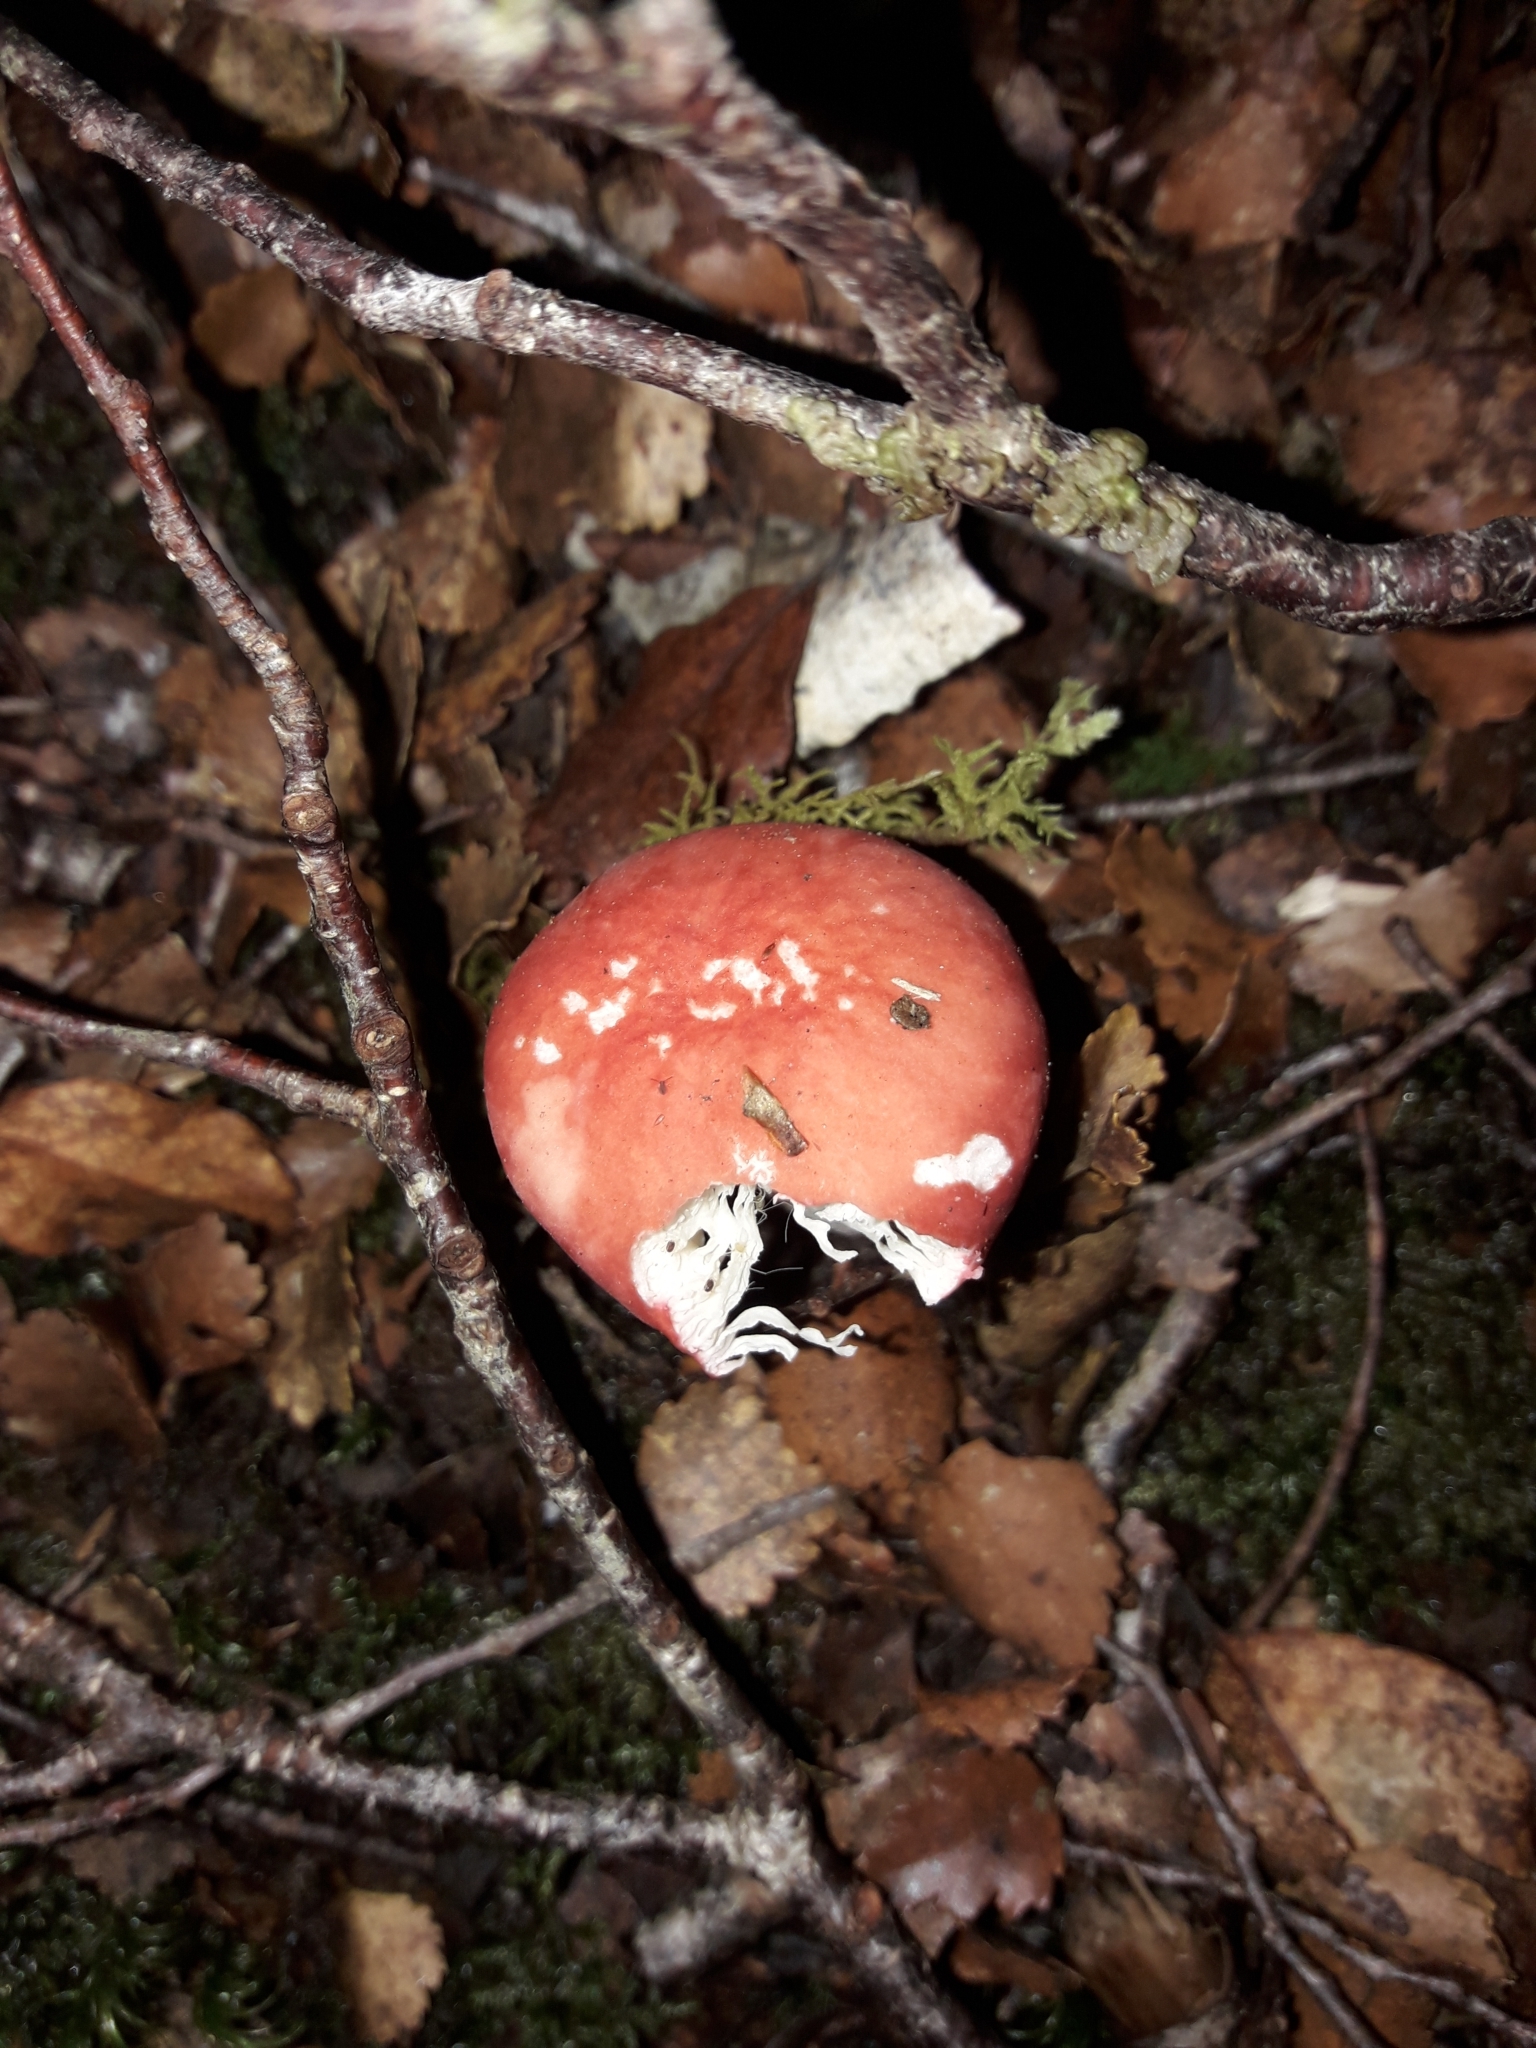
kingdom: Fungi
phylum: Basidiomycota
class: Agaricomycetes
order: Russulales
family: Russulaceae
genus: Russula
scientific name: Russula kermesina
